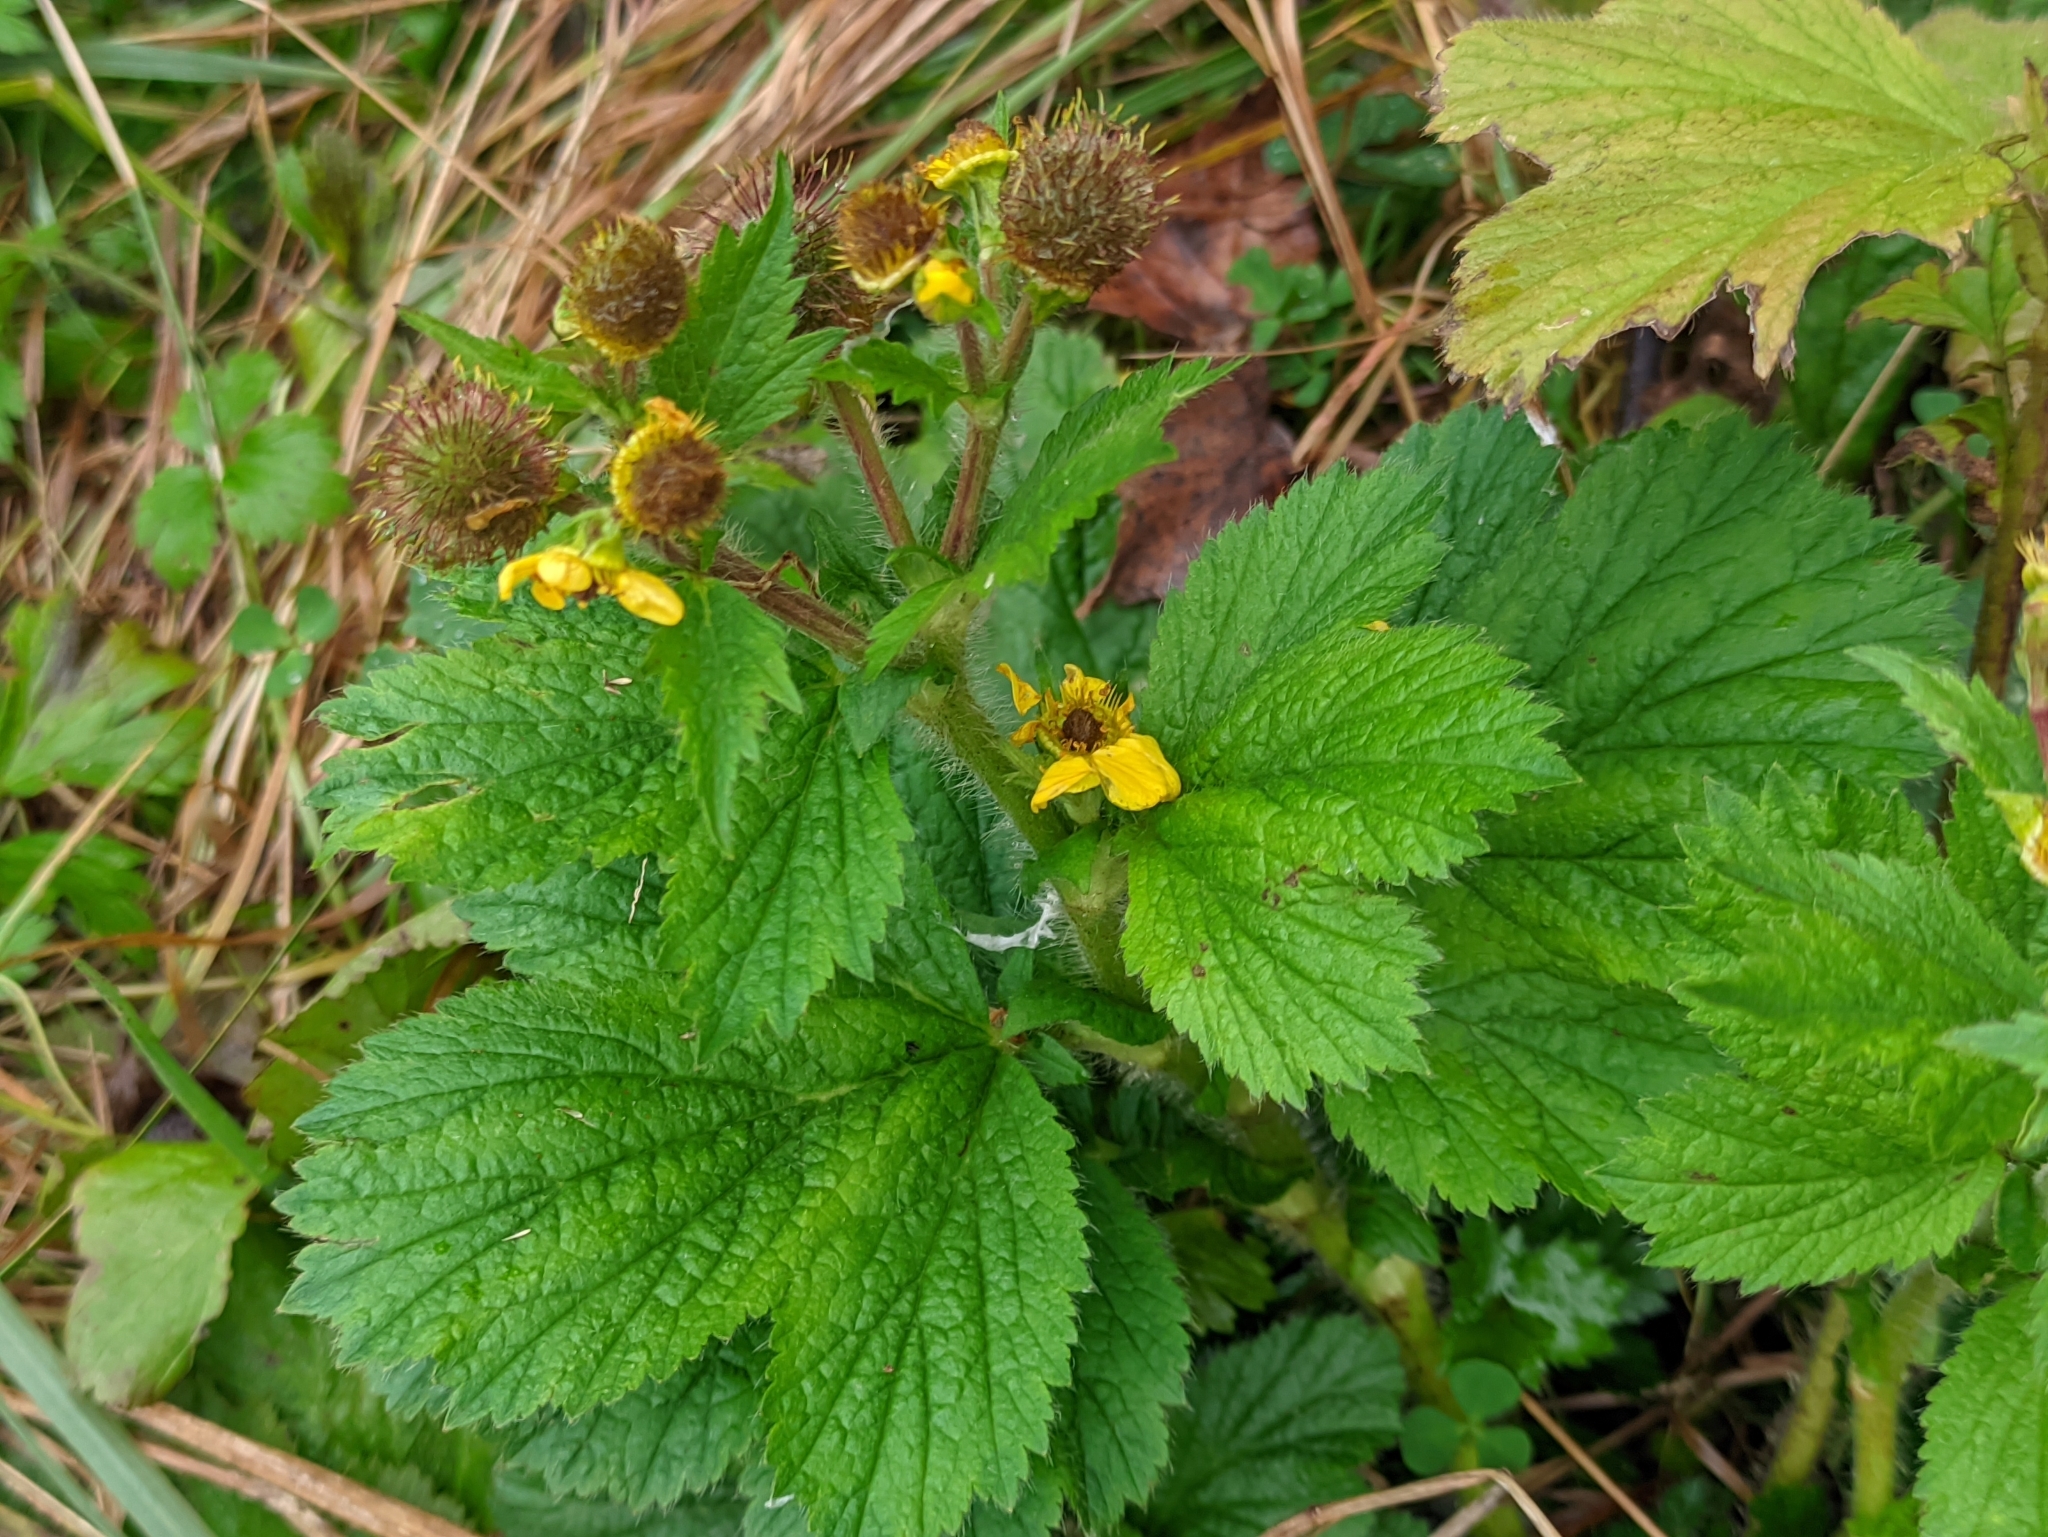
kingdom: Plantae
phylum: Tracheophyta
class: Magnoliopsida
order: Rosales
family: Rosaceae
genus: Geum
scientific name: Geum macrophyllum
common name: Large-leaved avens
